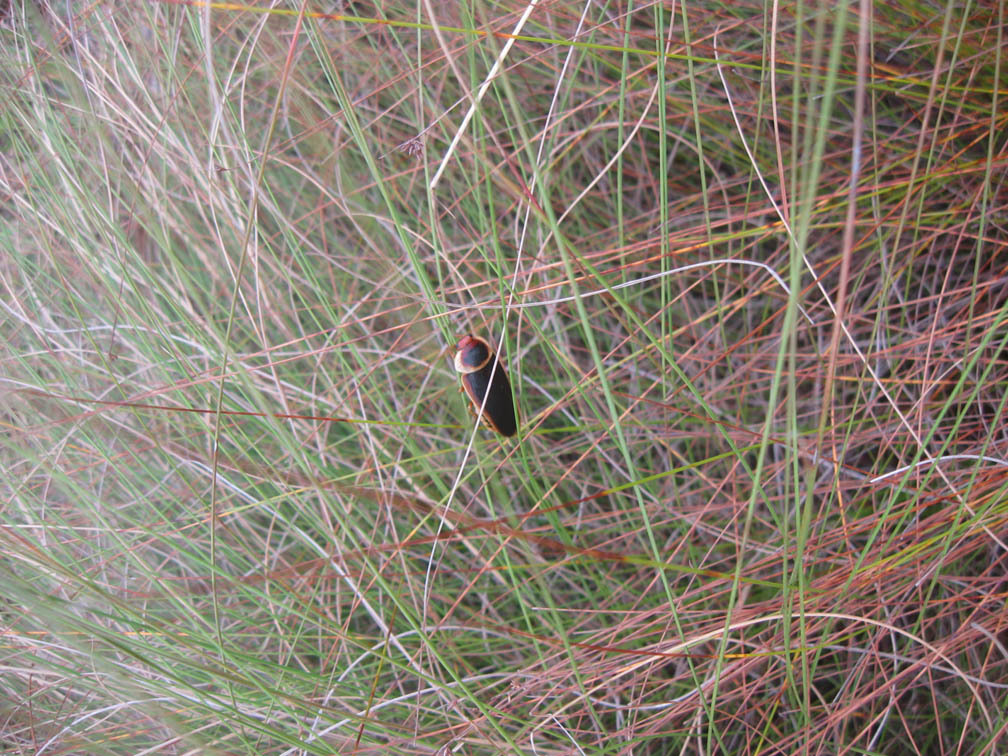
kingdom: Animalia
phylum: Arthropoda
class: Insecta
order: Blattodea
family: Blaberidae
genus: Aptera
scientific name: Aptera fusca
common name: Cape mountain cockroach
